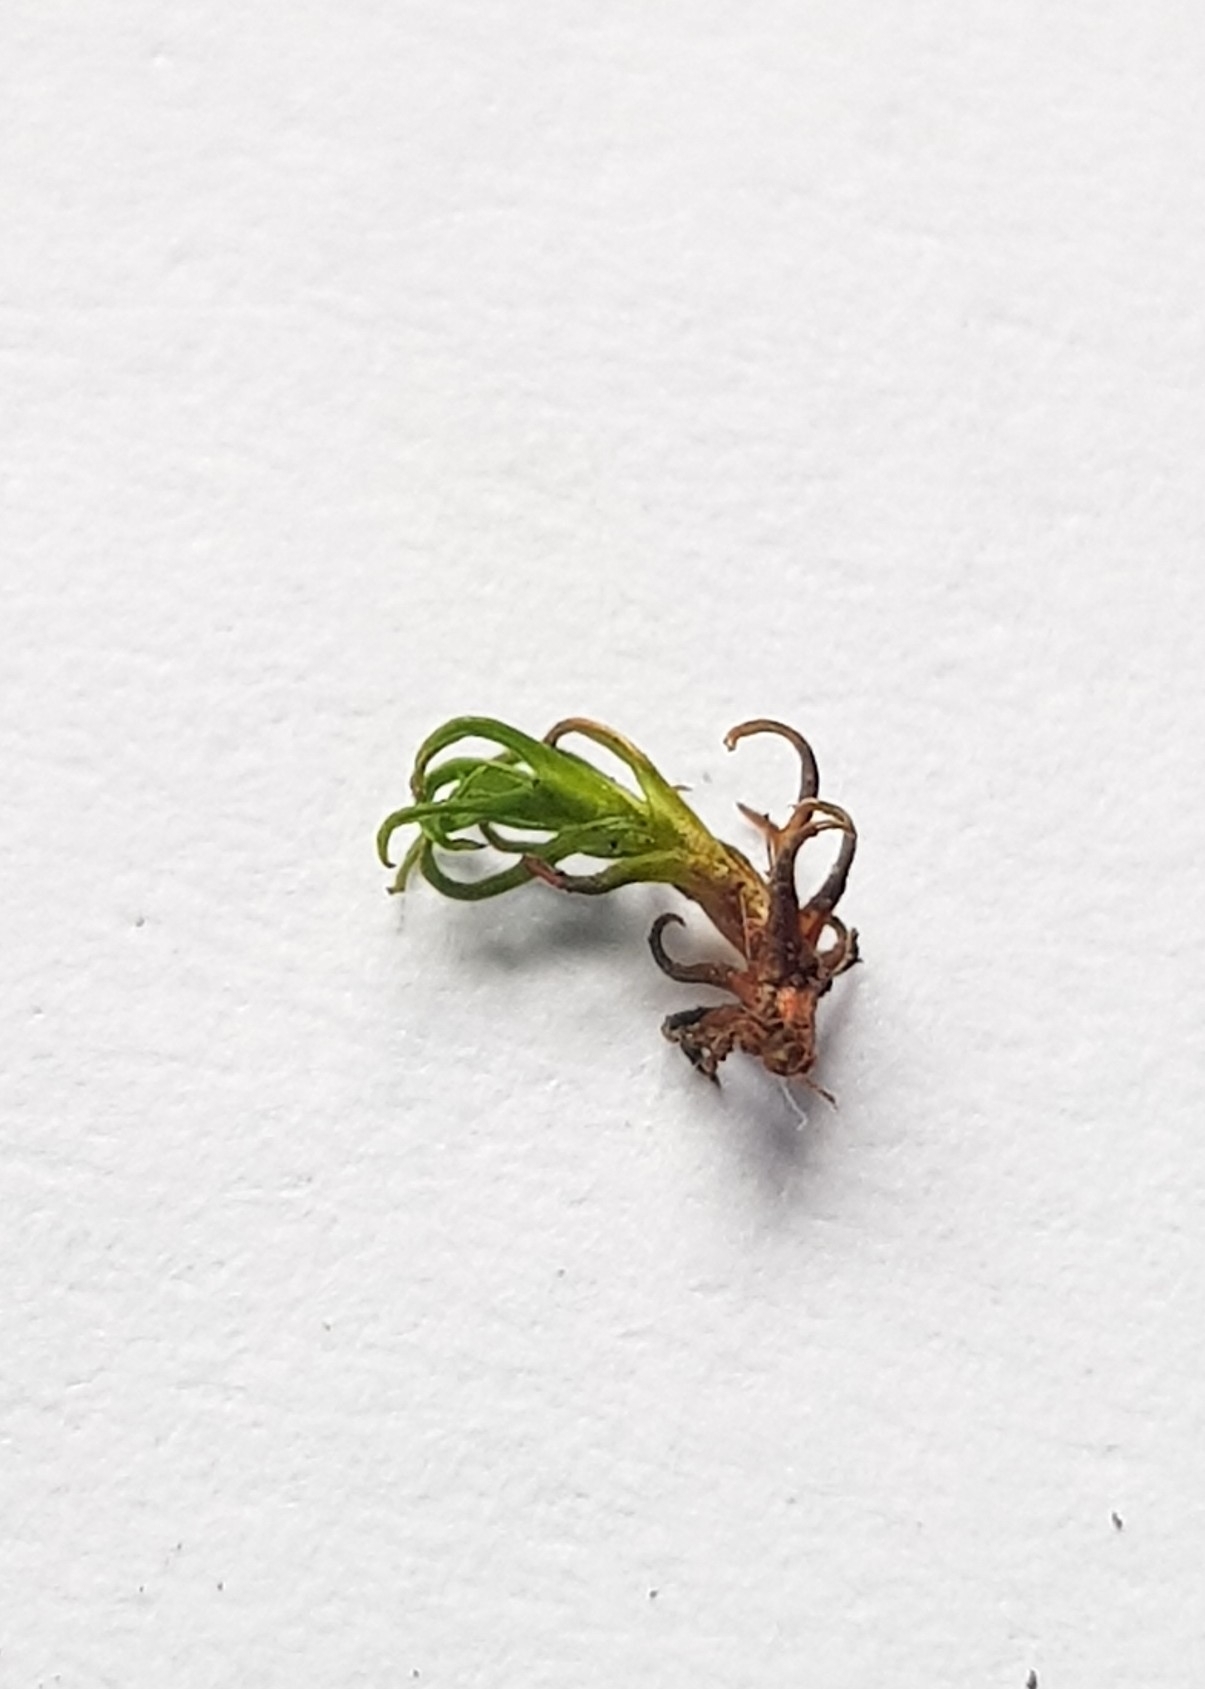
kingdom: Plantae
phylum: Bryophyta
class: Bryopsida
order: Pottiales
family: Pottiaceae
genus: Bryoerythrophyllum
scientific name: Bryoerythrophyllum recurvirostrum
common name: Red beard moss
